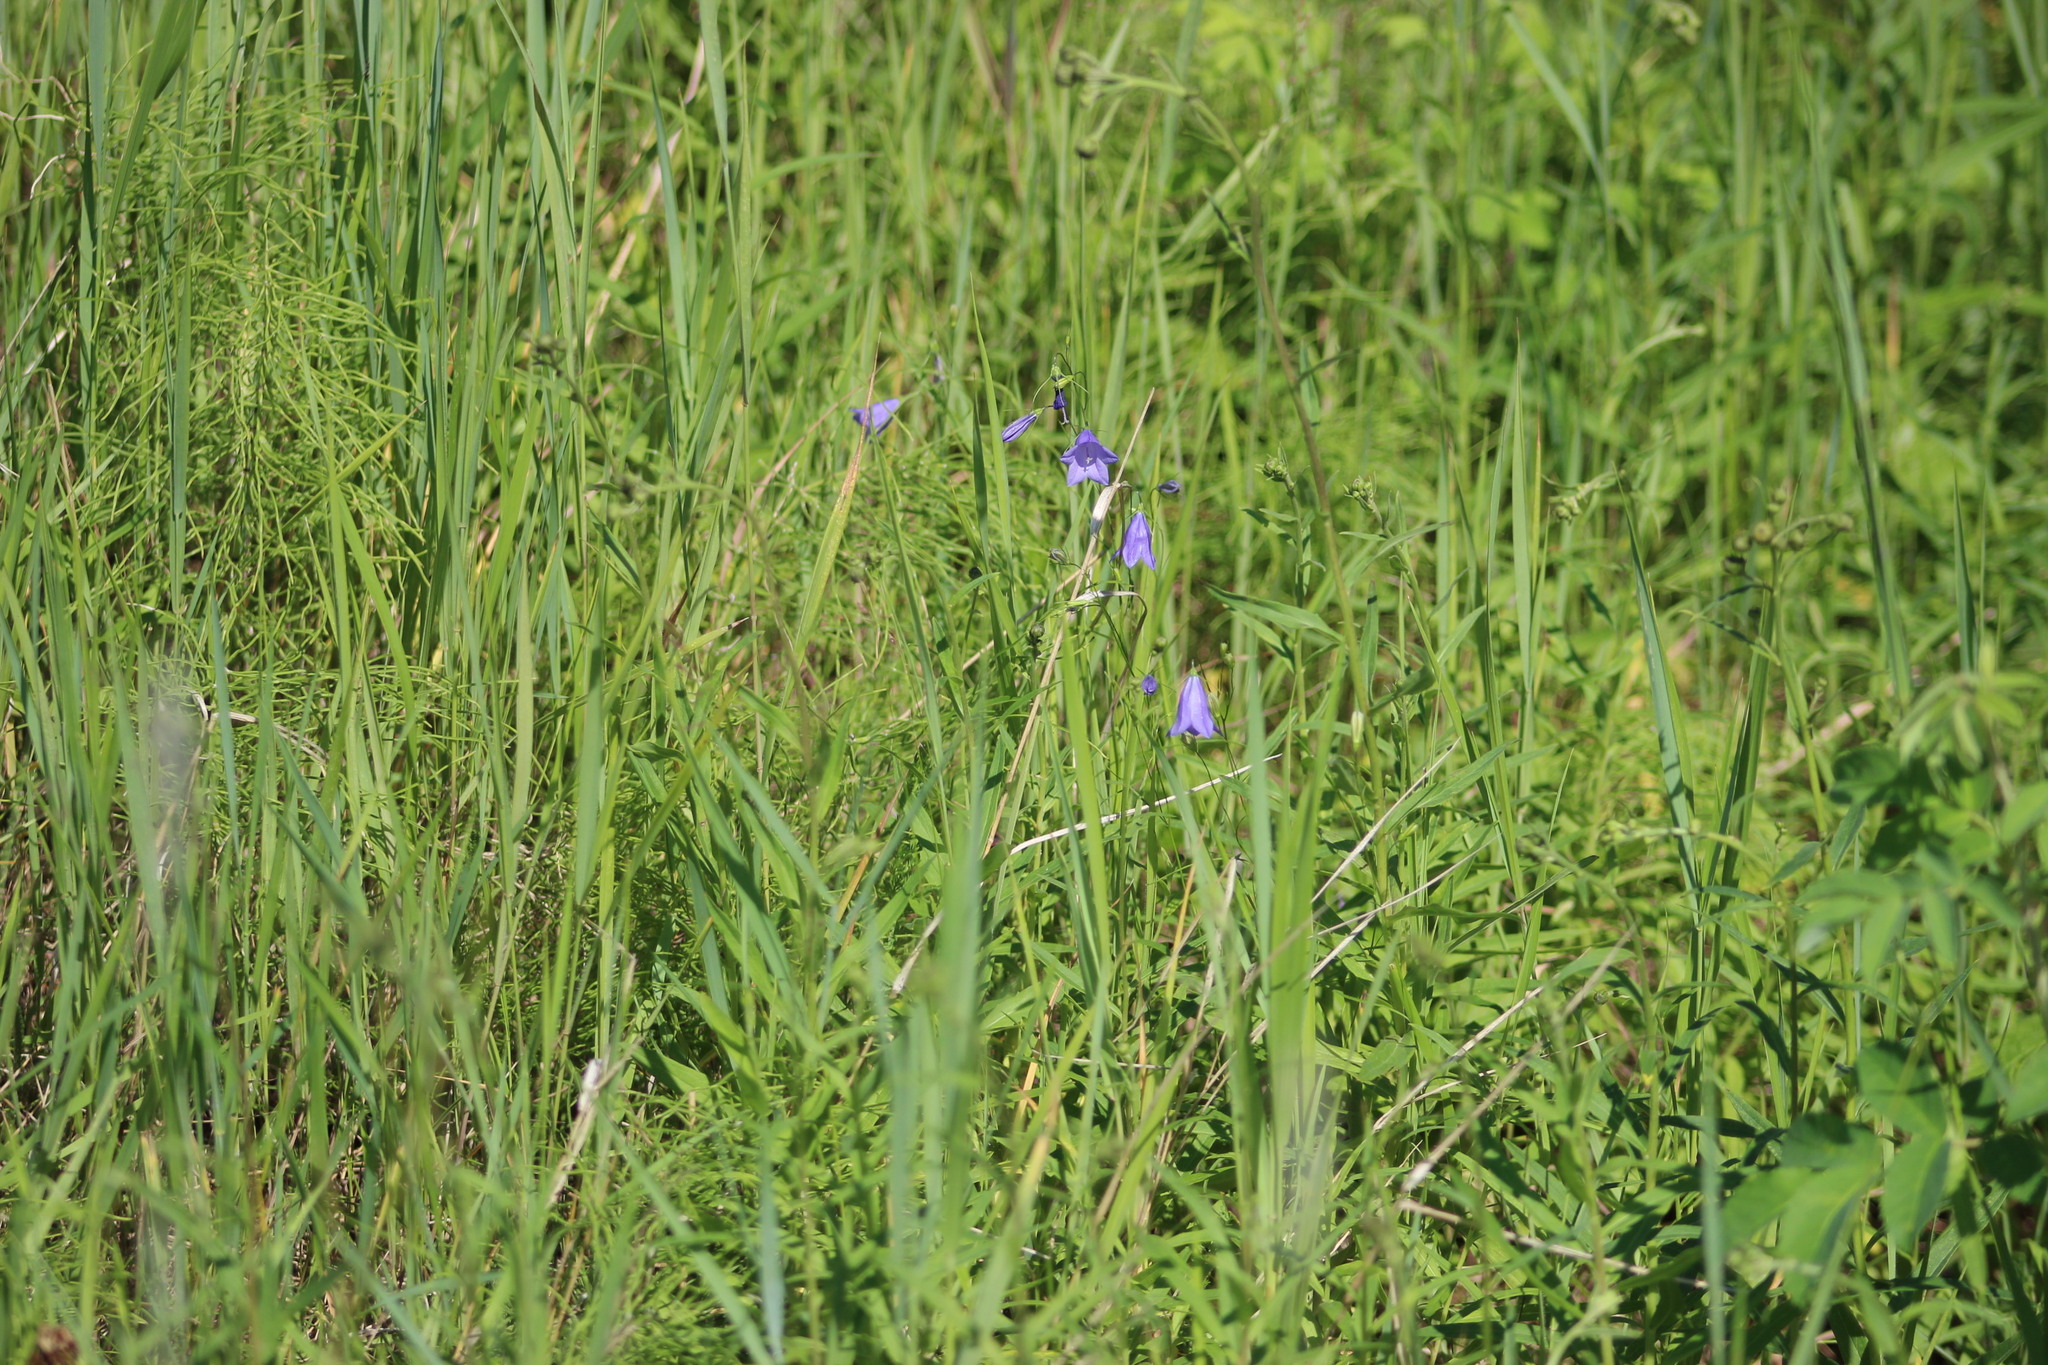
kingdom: Plantae
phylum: Tracheophyta
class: Magnoliopsida
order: Asterales
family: Campanulaceae
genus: Campanula
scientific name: Campanula rotundifolia
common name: Harebell
